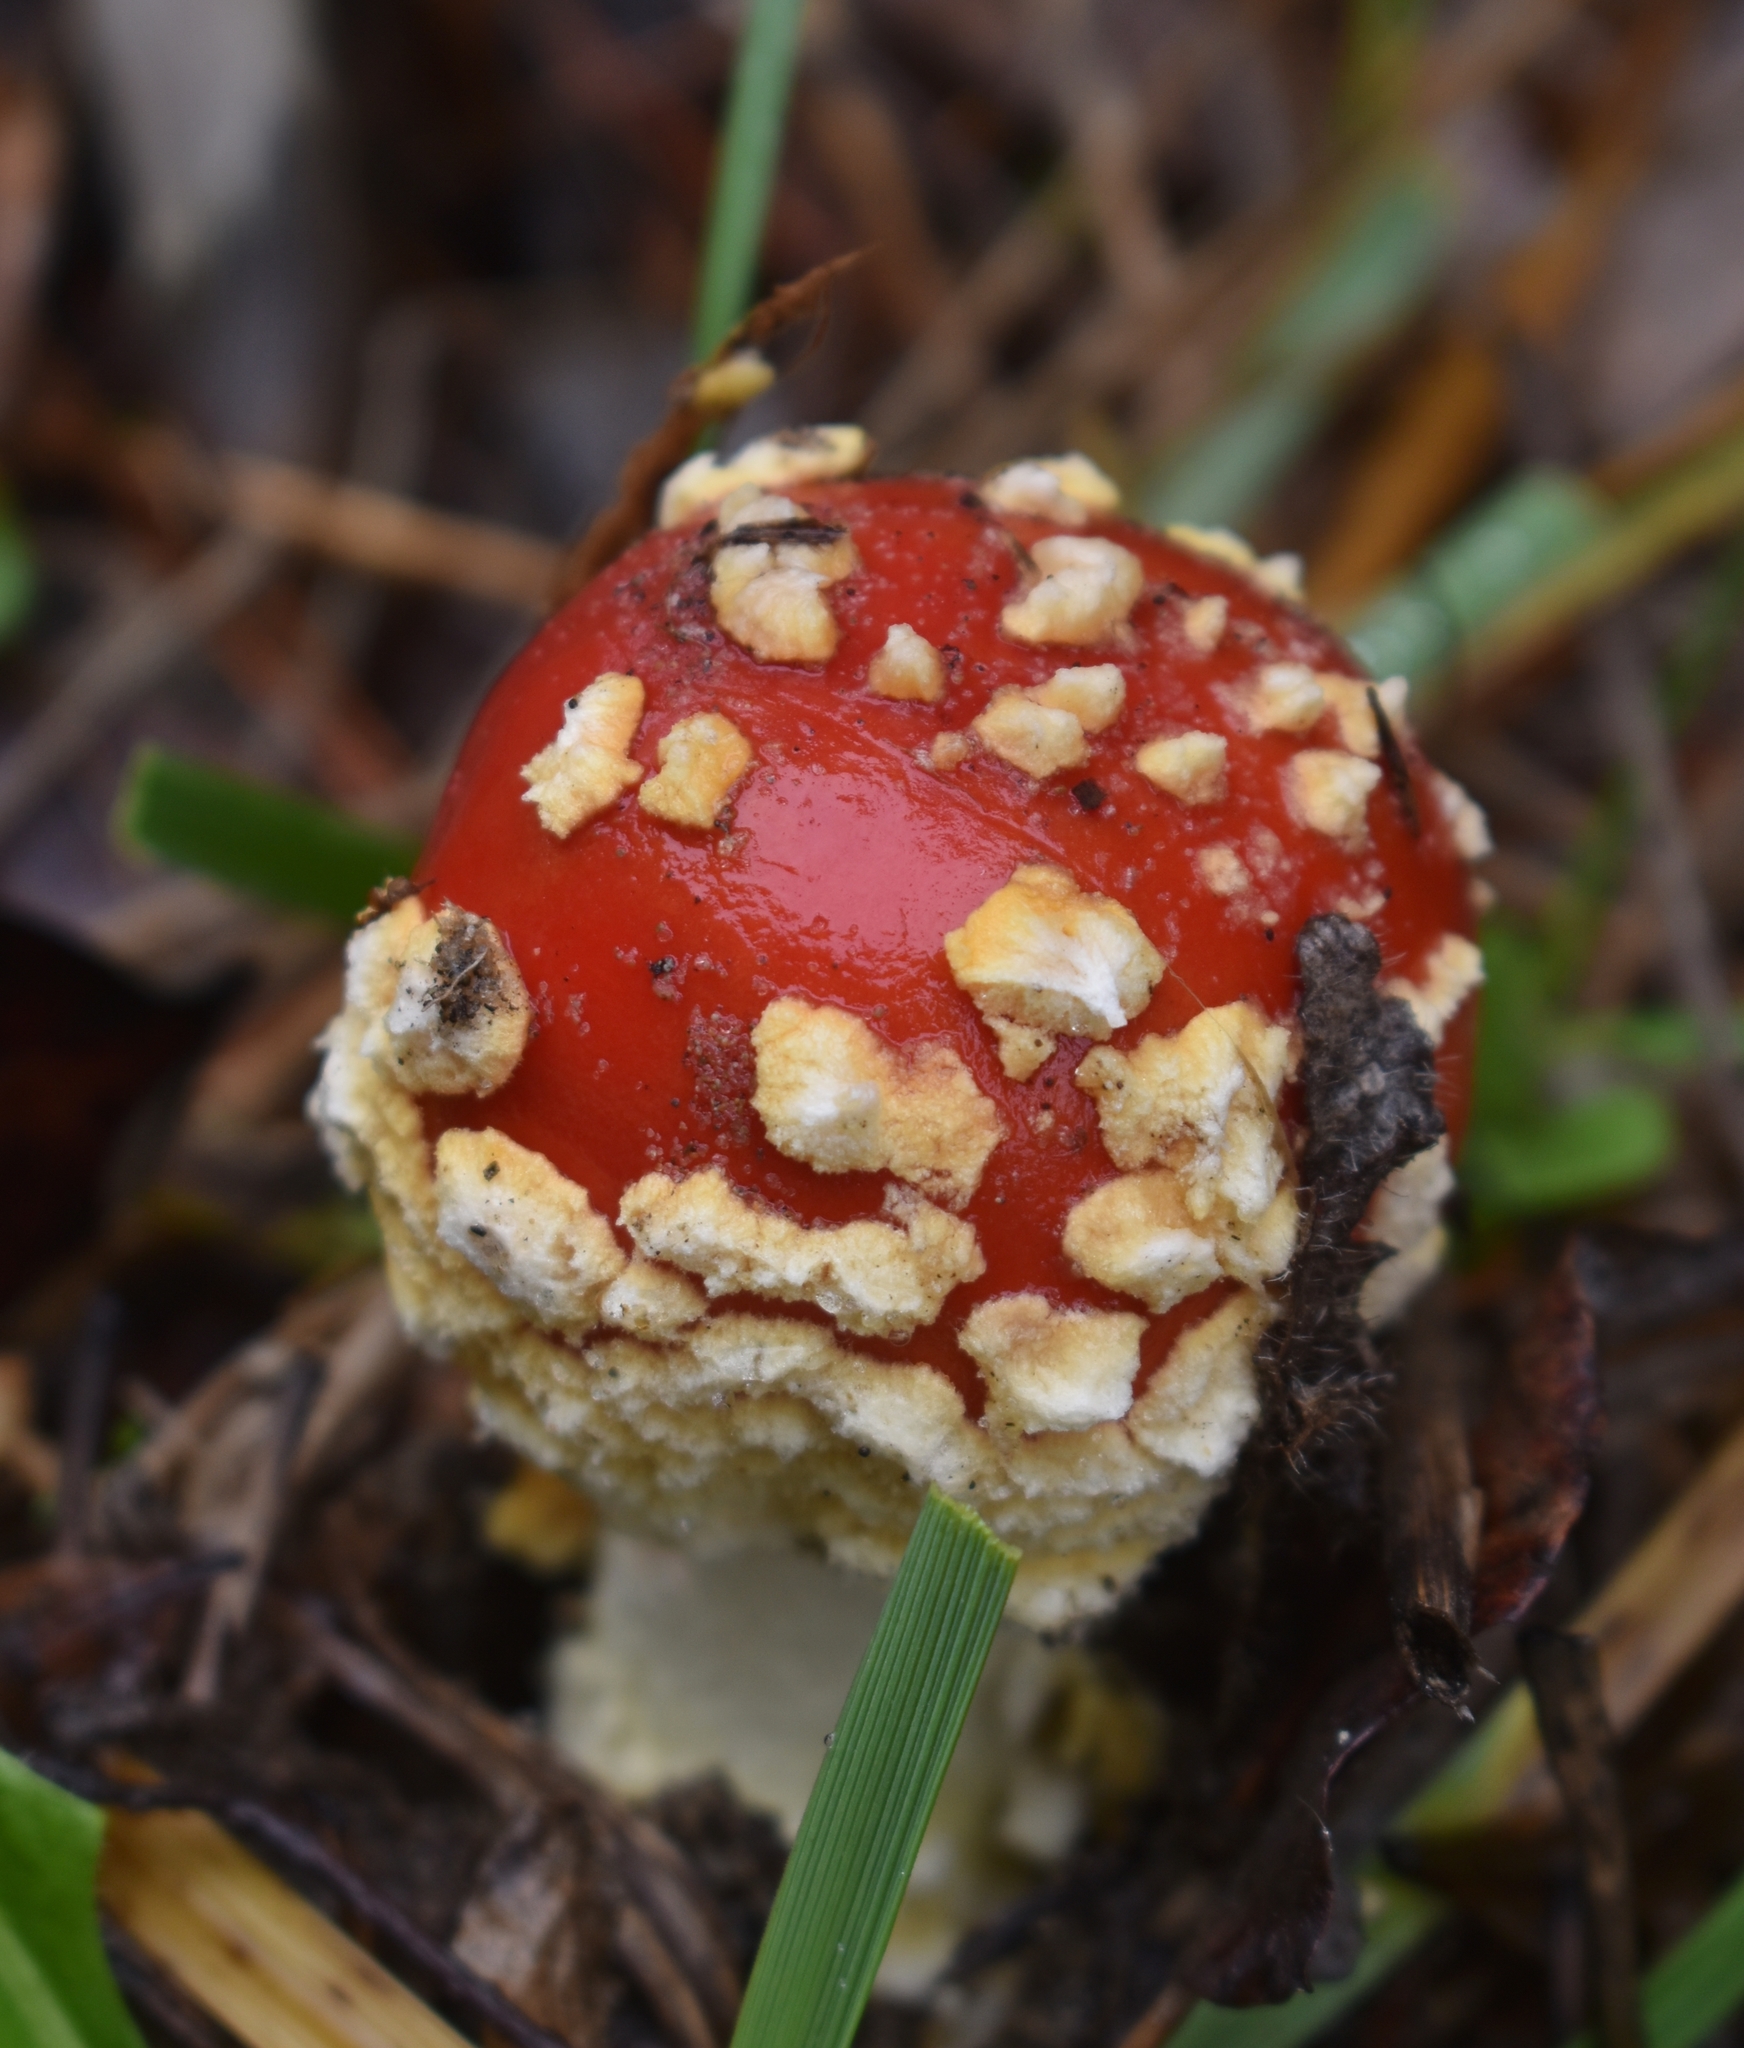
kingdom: Fungi
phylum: Basidiomycota
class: Agaricomycetes
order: Agaricales
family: Amanitaceae
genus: Amanita
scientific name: Amanita muscaria
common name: Fly agaric
